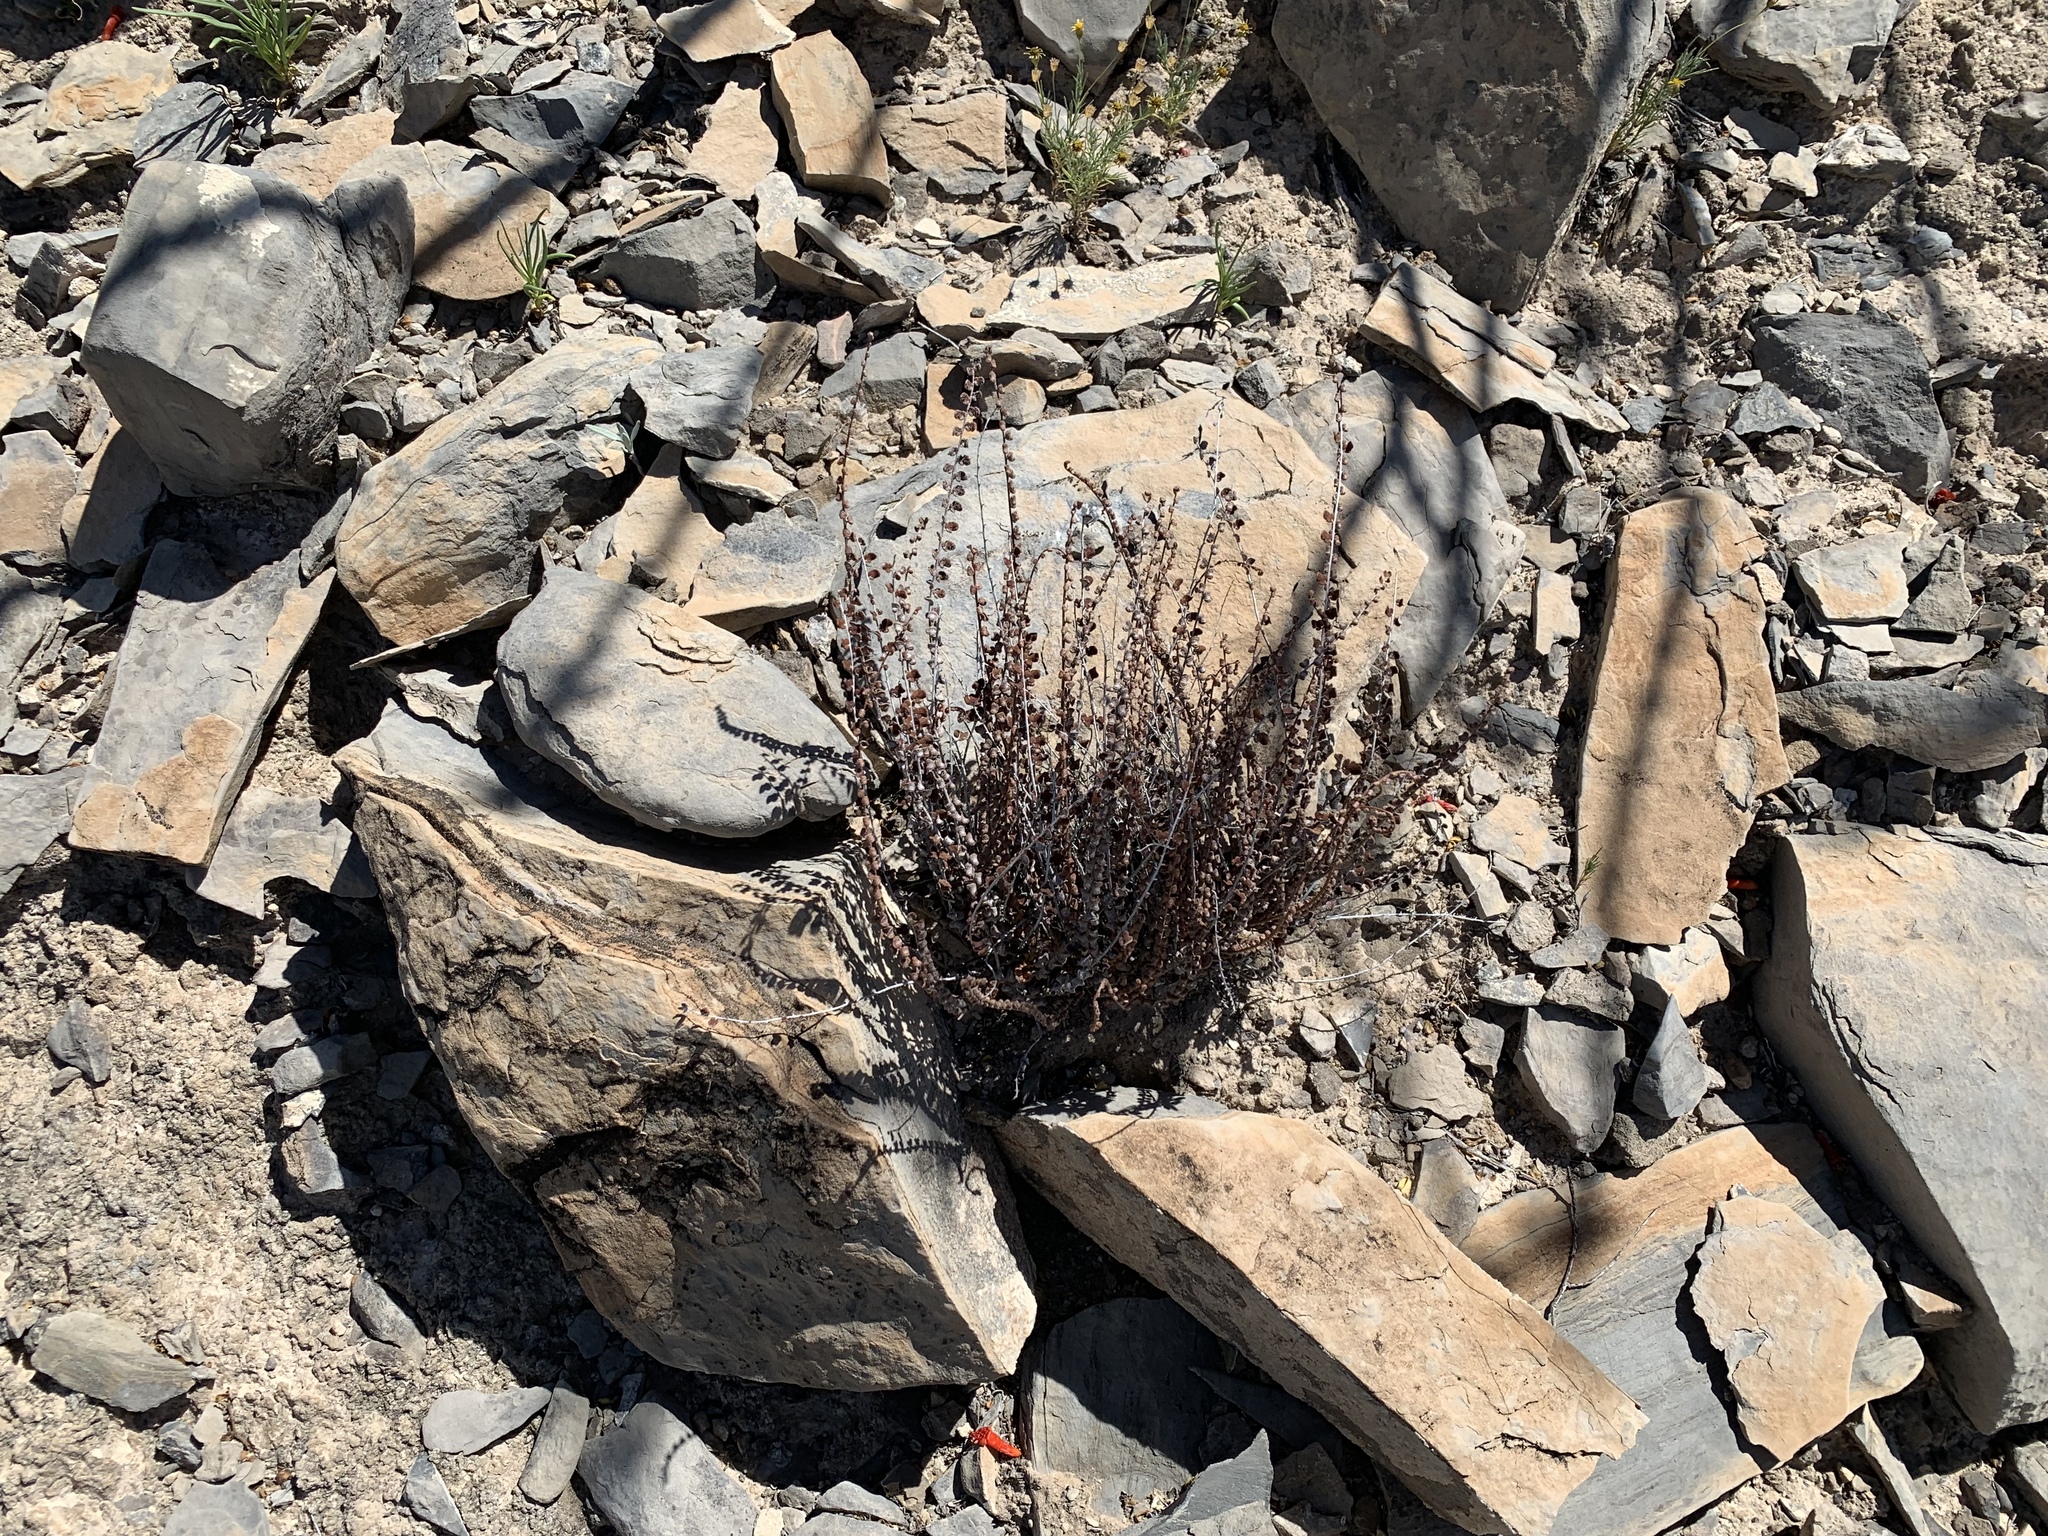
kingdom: Plantae
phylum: Tracheophyta
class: Polypodiopsida
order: Polypodiales
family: Pteridaceae
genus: Astrolepis
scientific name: Astrolepis cochisensis
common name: Scaly cloak fern
